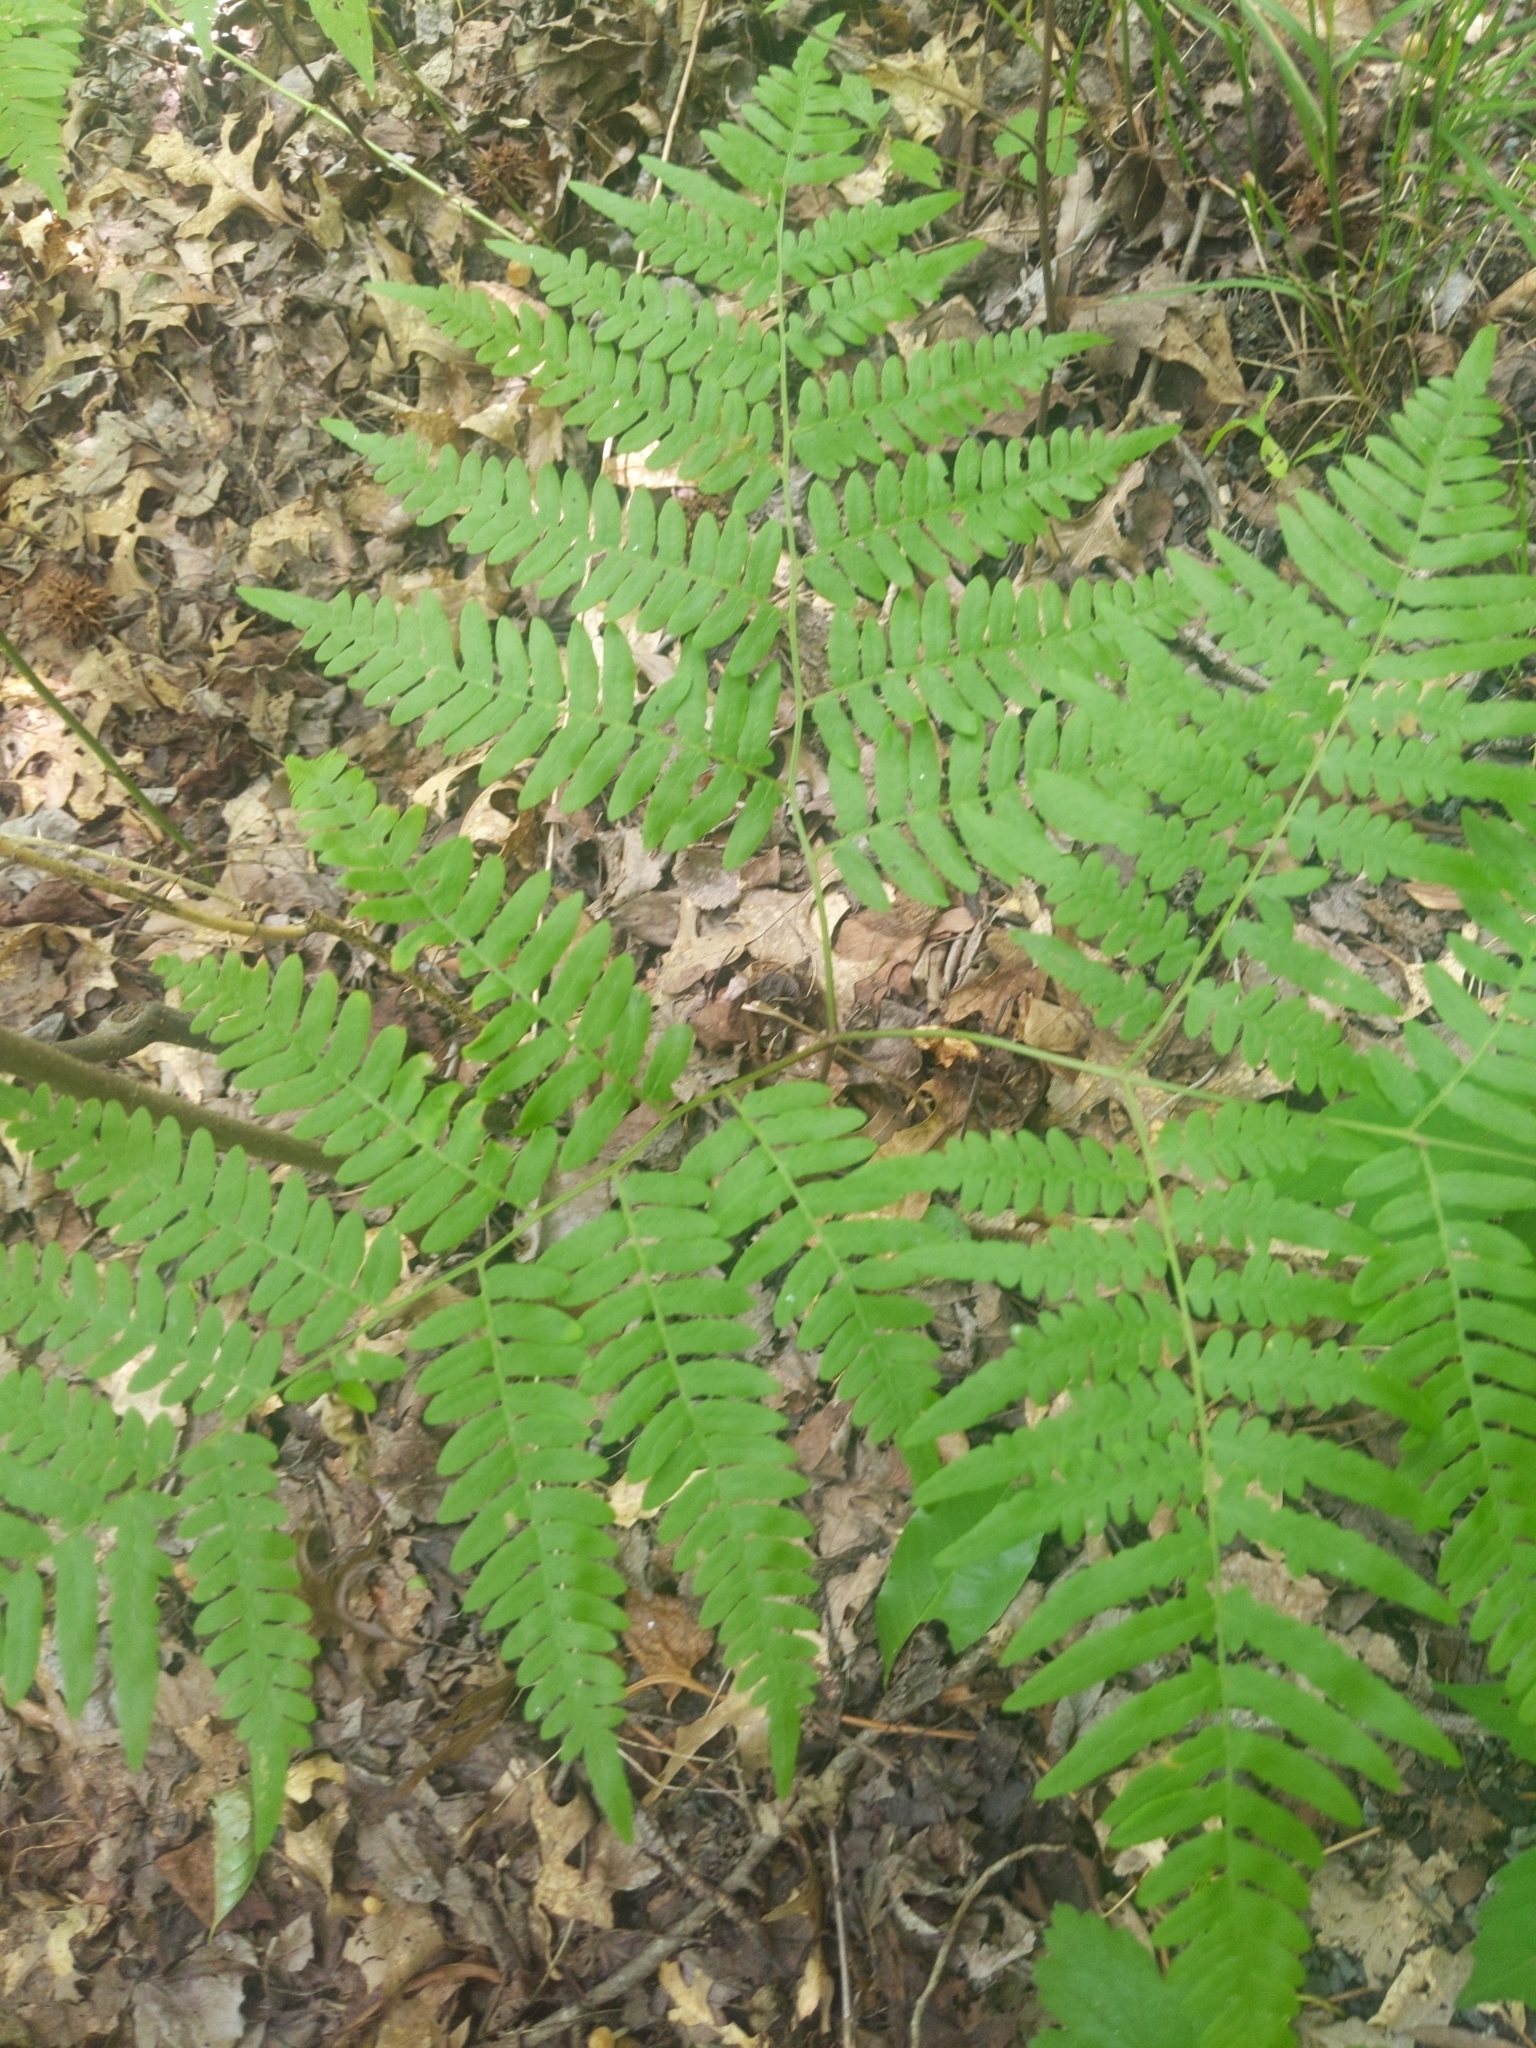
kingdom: Plantae
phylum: Tracheophyta
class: Polypodiopsida
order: Polypodiales
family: Dennstaedtiaceae
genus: Pteridium
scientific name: Pteridium aquilinum
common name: Bracken
